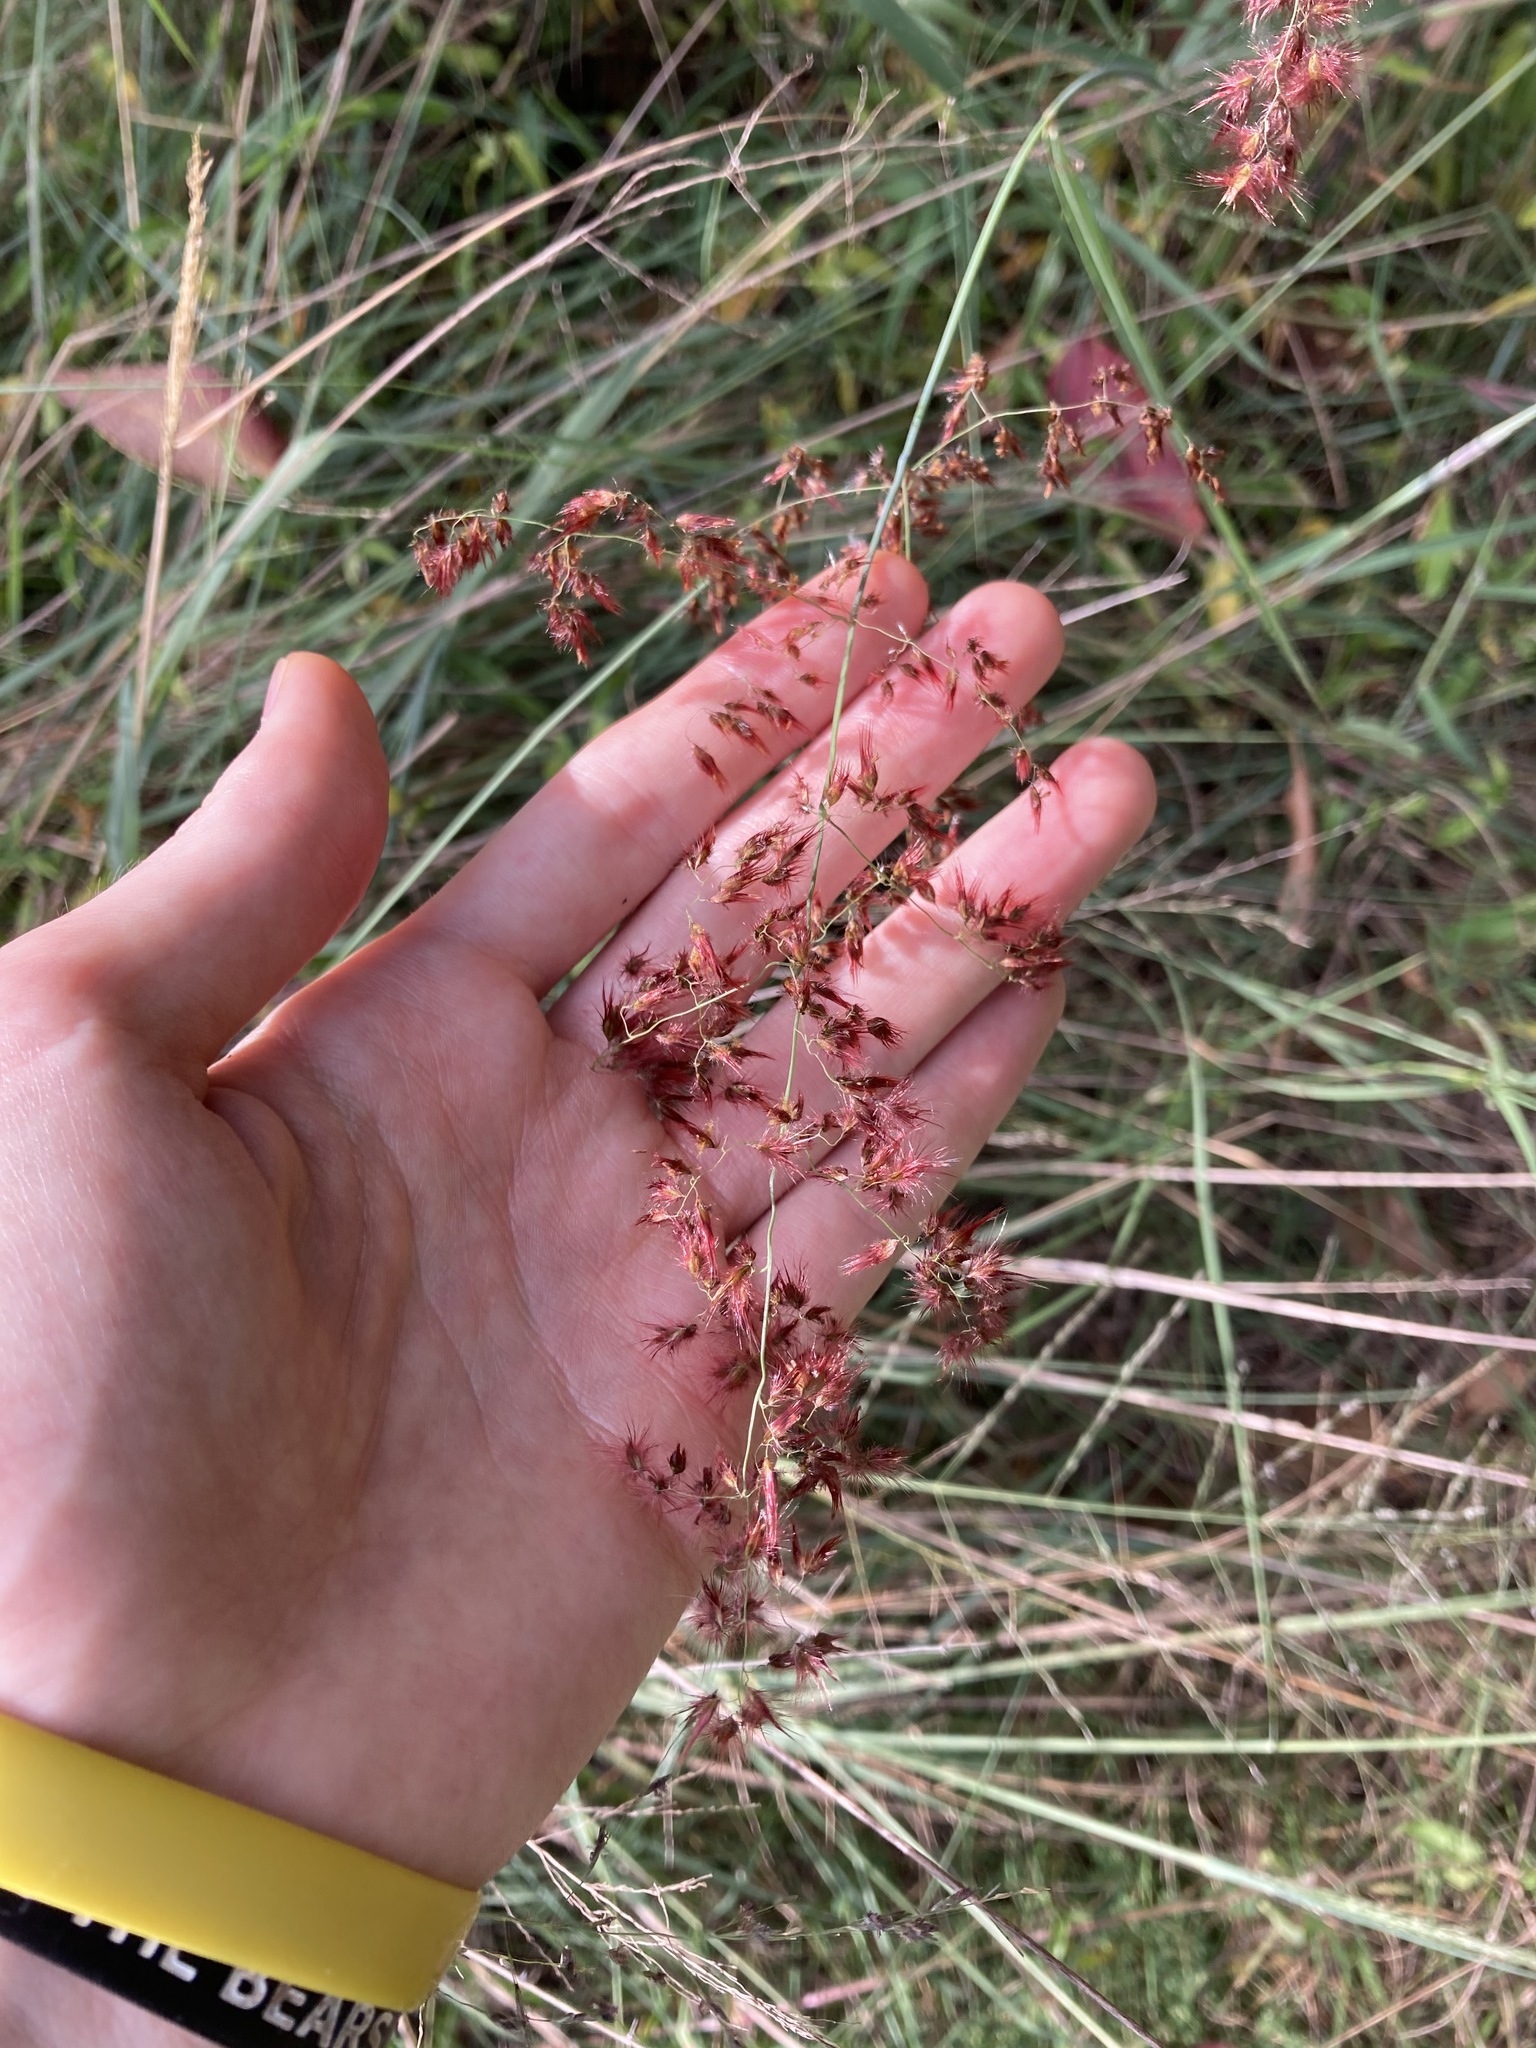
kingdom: Plantae
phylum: Tracheophyta
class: Liliopsida
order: Poales
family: Poaceae
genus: Melinis
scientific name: Melinis repens
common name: Rose natal grass
